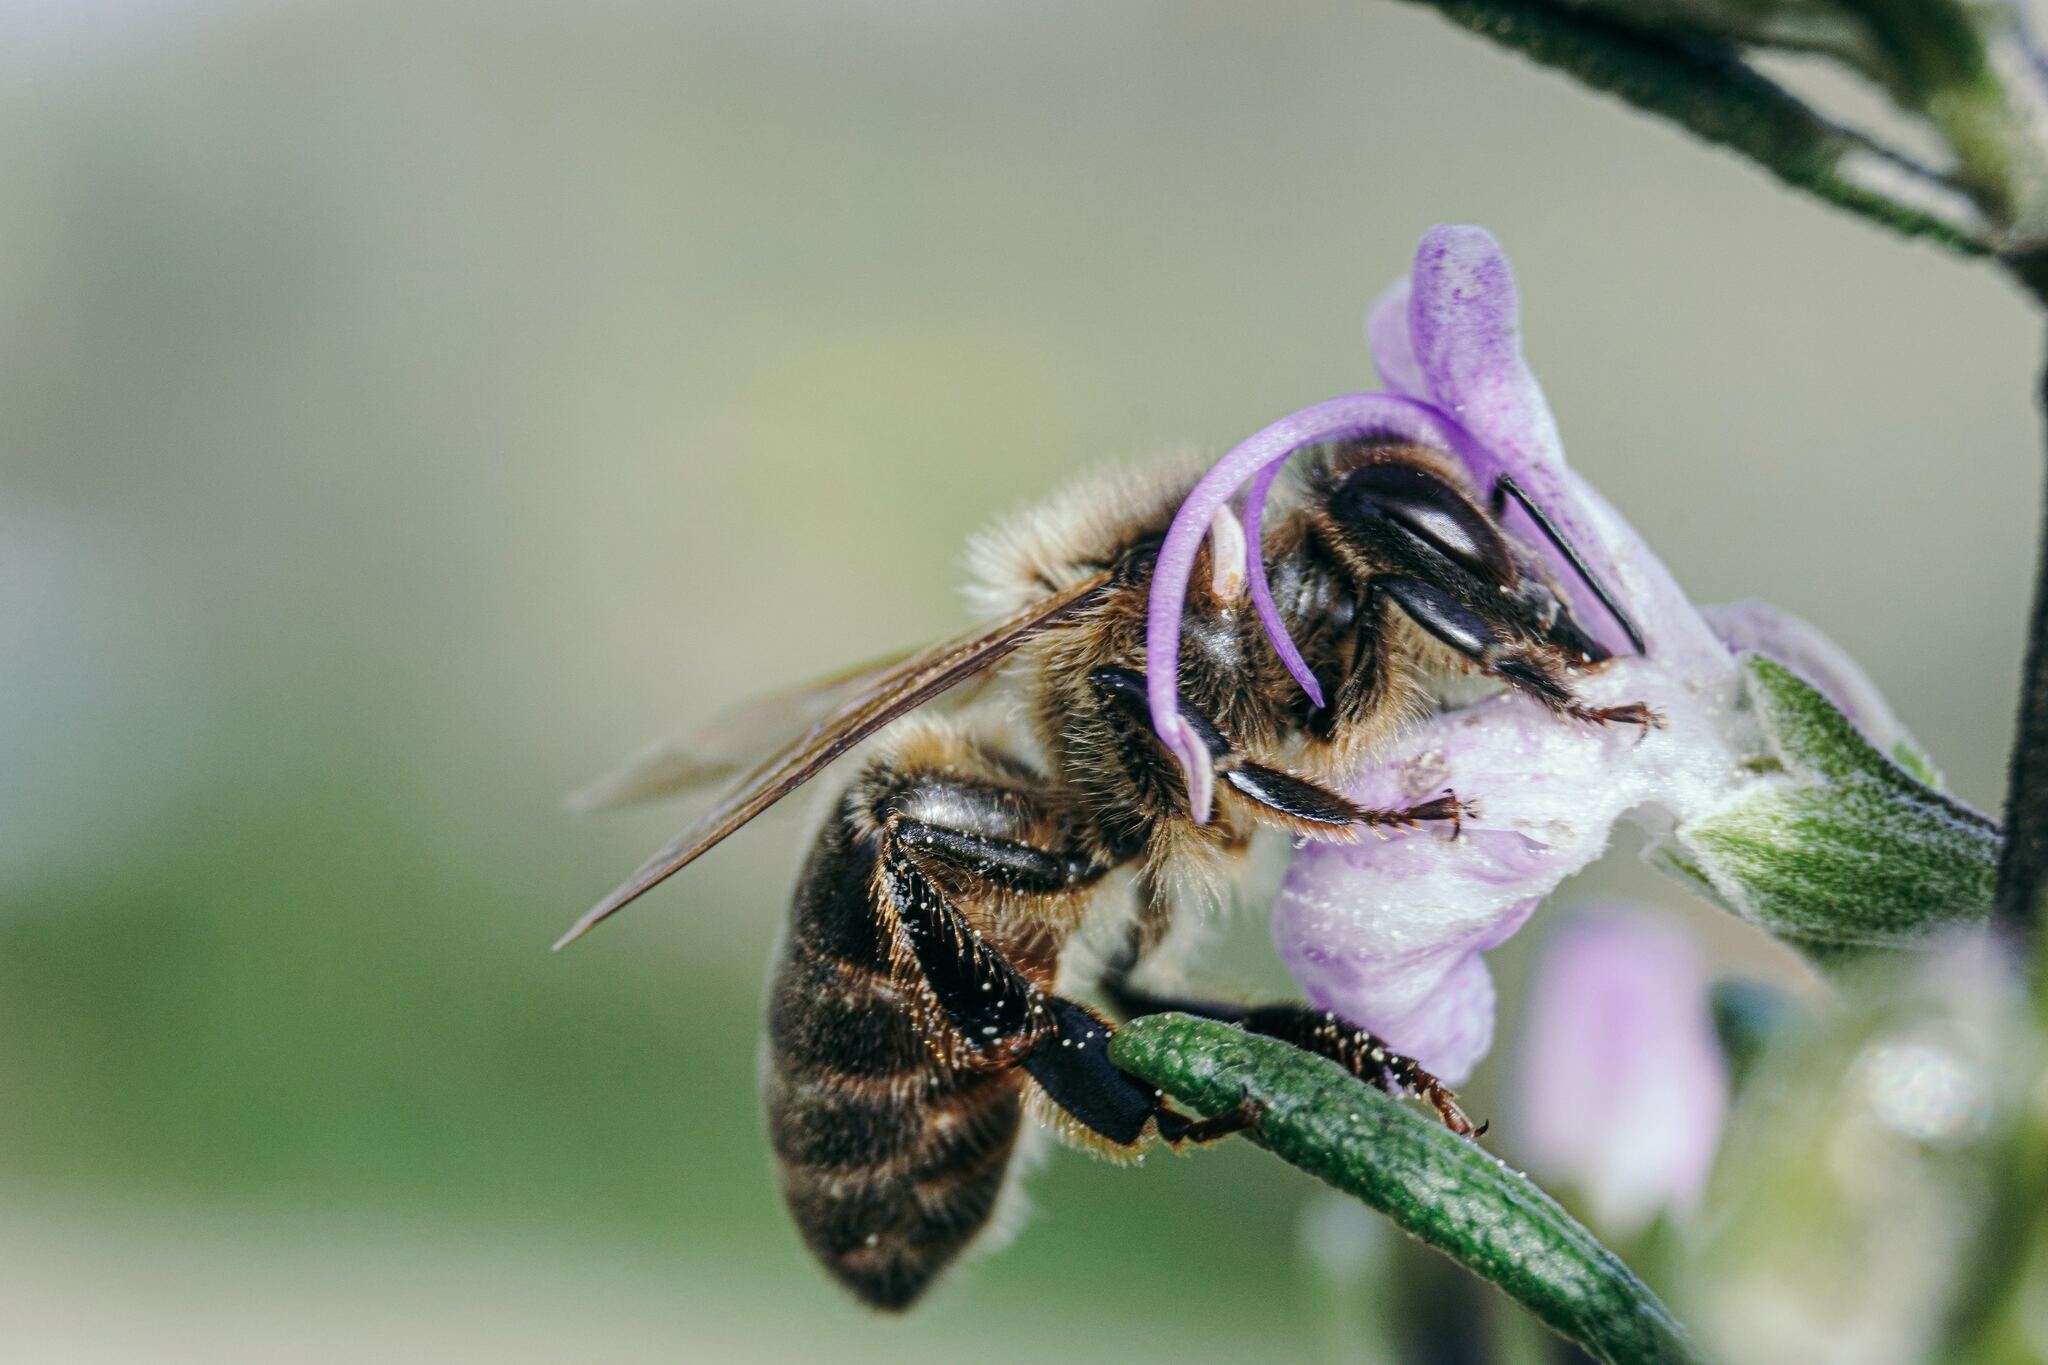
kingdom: Animalia
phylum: Arthropoda
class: Insecta
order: Hymenoptera
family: Apidae
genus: Apis
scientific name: Apis mellifera
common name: Honey bee
